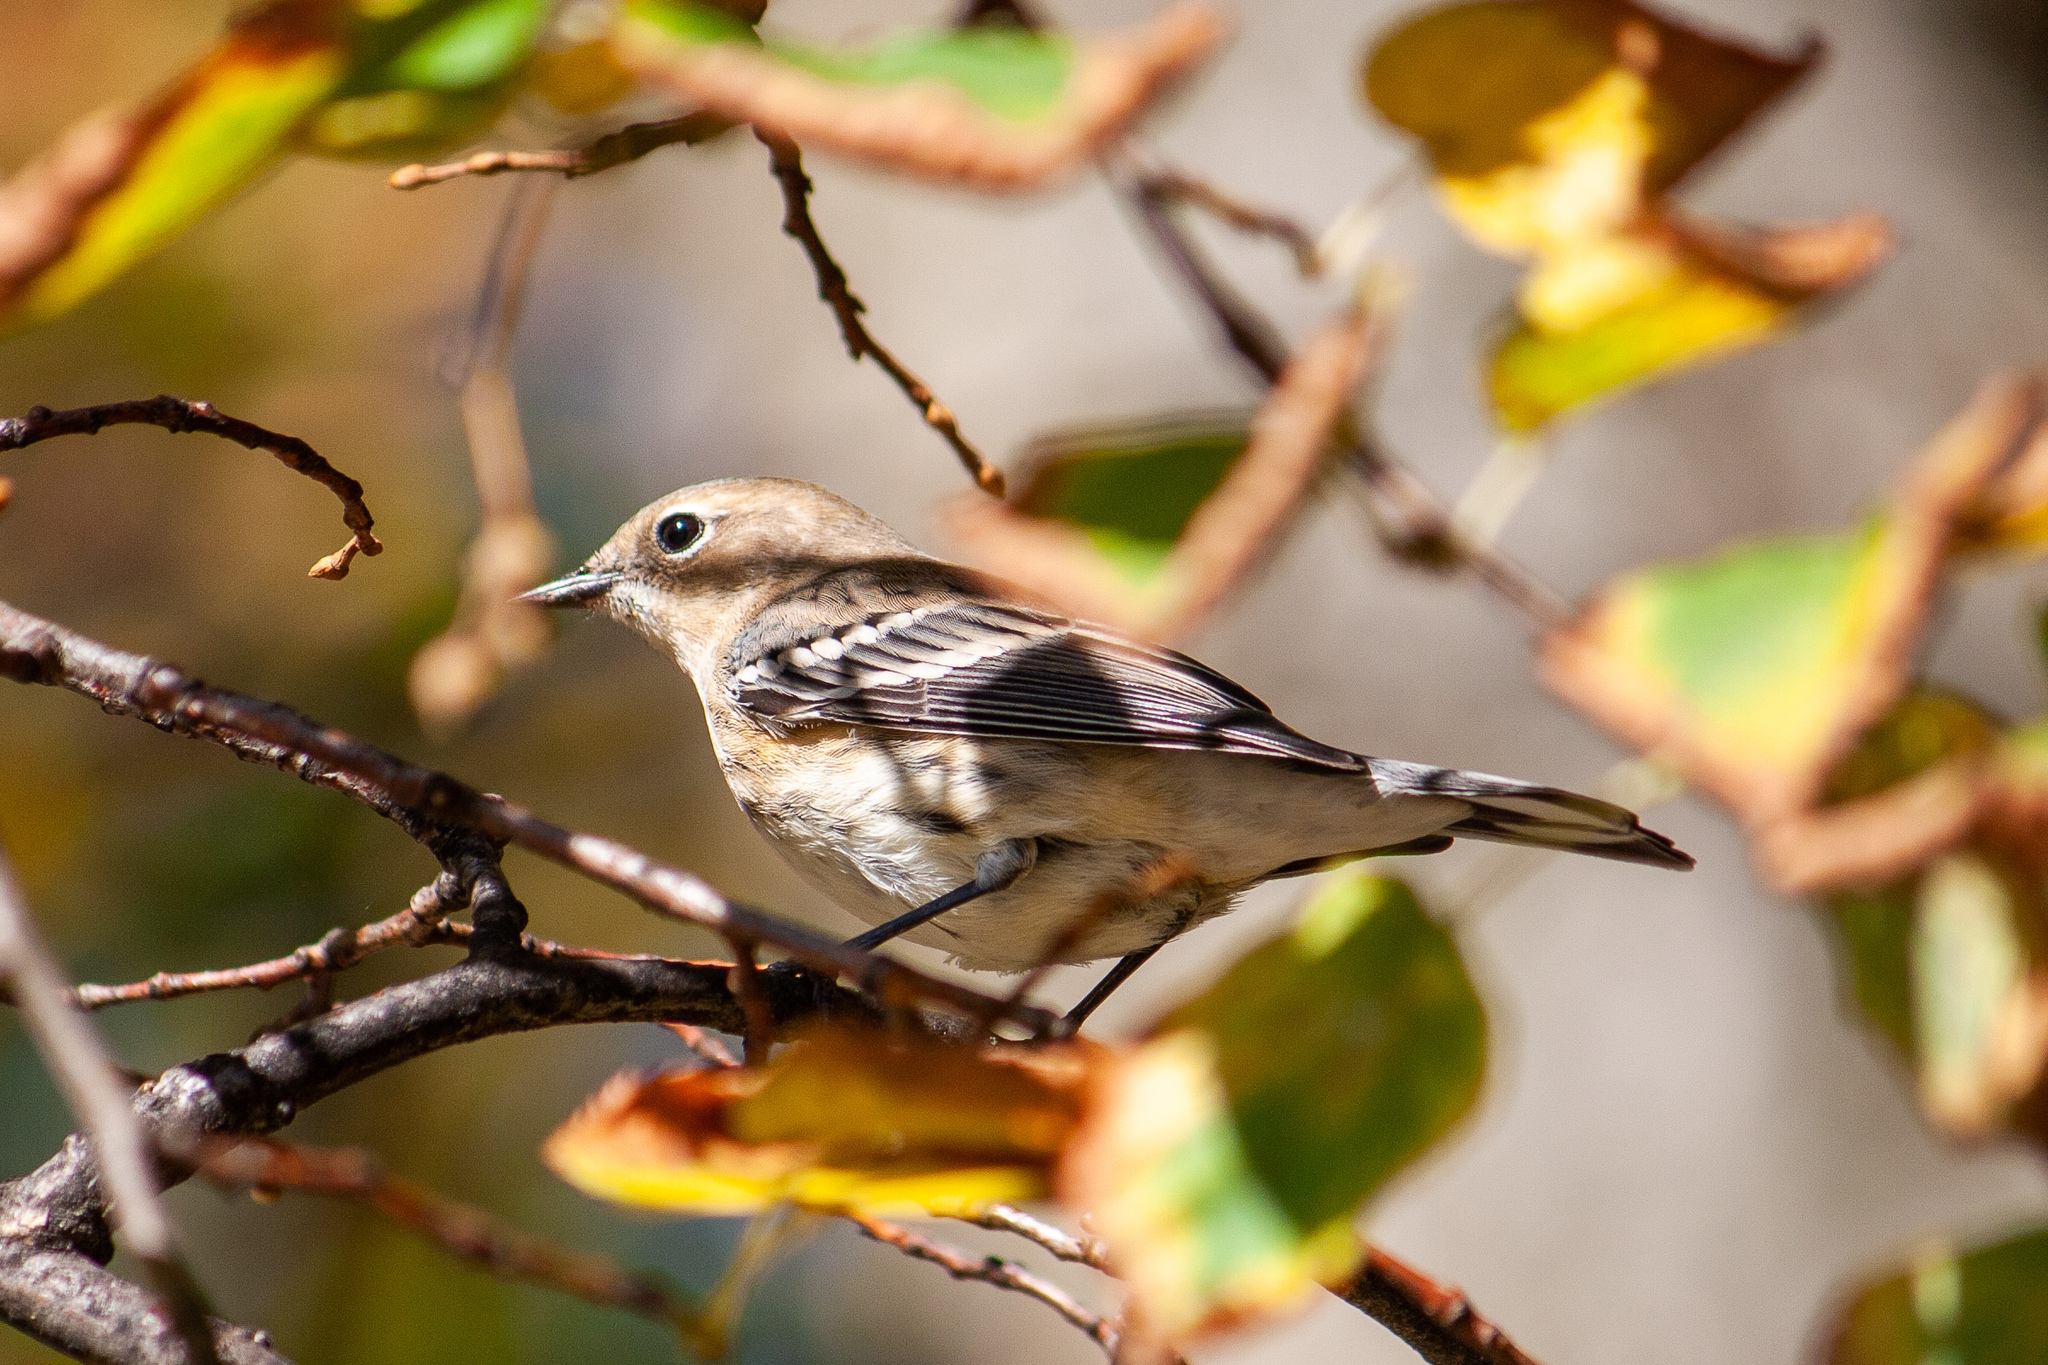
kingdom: Animalia
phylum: Chordata
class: Aves
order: Passeriformes
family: Parulidae
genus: Setophaga
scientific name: Setophaga coronata
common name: Myrtle warbler
